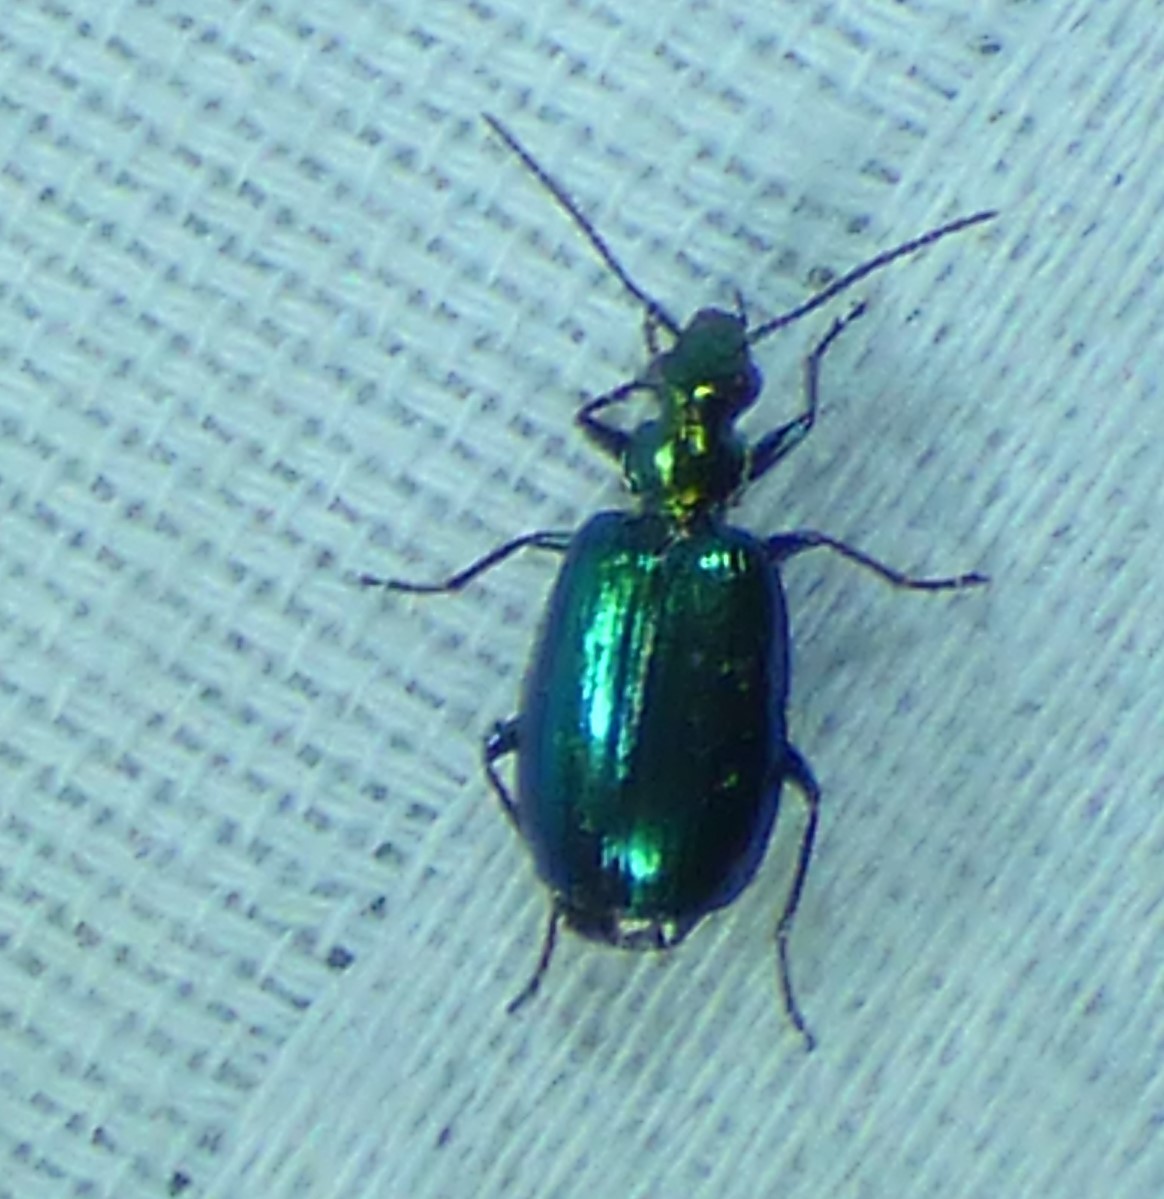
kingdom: Animalia
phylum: Arthropoda
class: Insecta
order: Coleoptera
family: Carabidae
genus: Lebia
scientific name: Lebia viridis
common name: Flower lebia beetle
